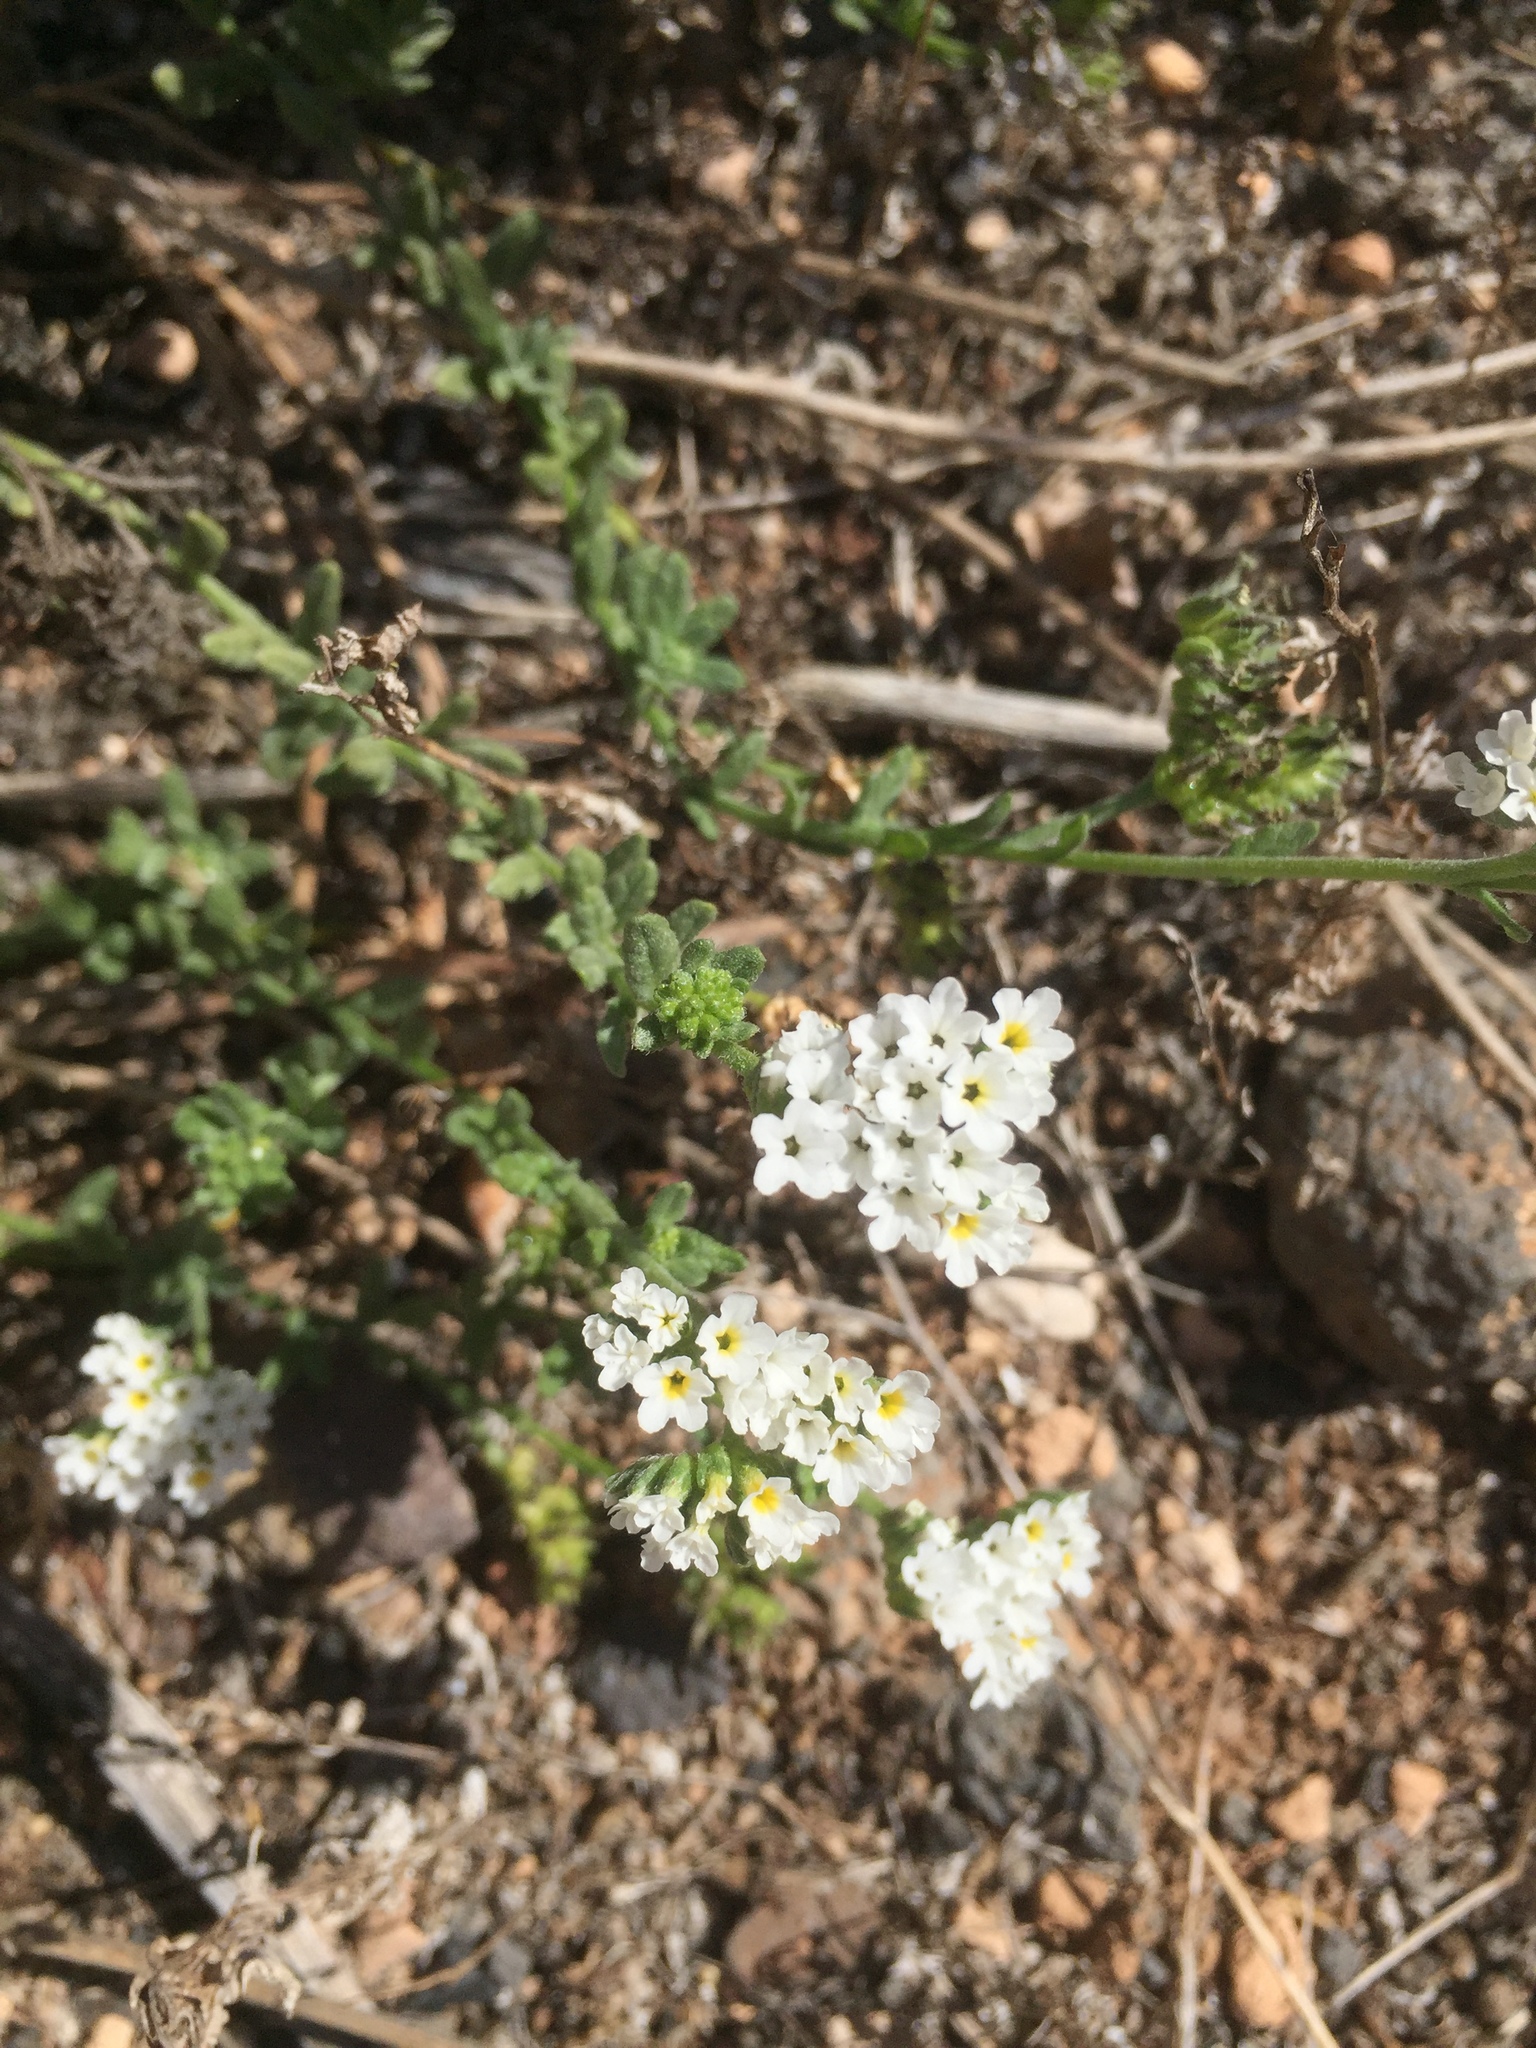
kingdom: Plantae
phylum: Tracheophyta
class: Magnoliopsida
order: Boraginales
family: Heliotropiaceae
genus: Heliotropium
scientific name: Heliotropium europaeum
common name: European heliotrope
